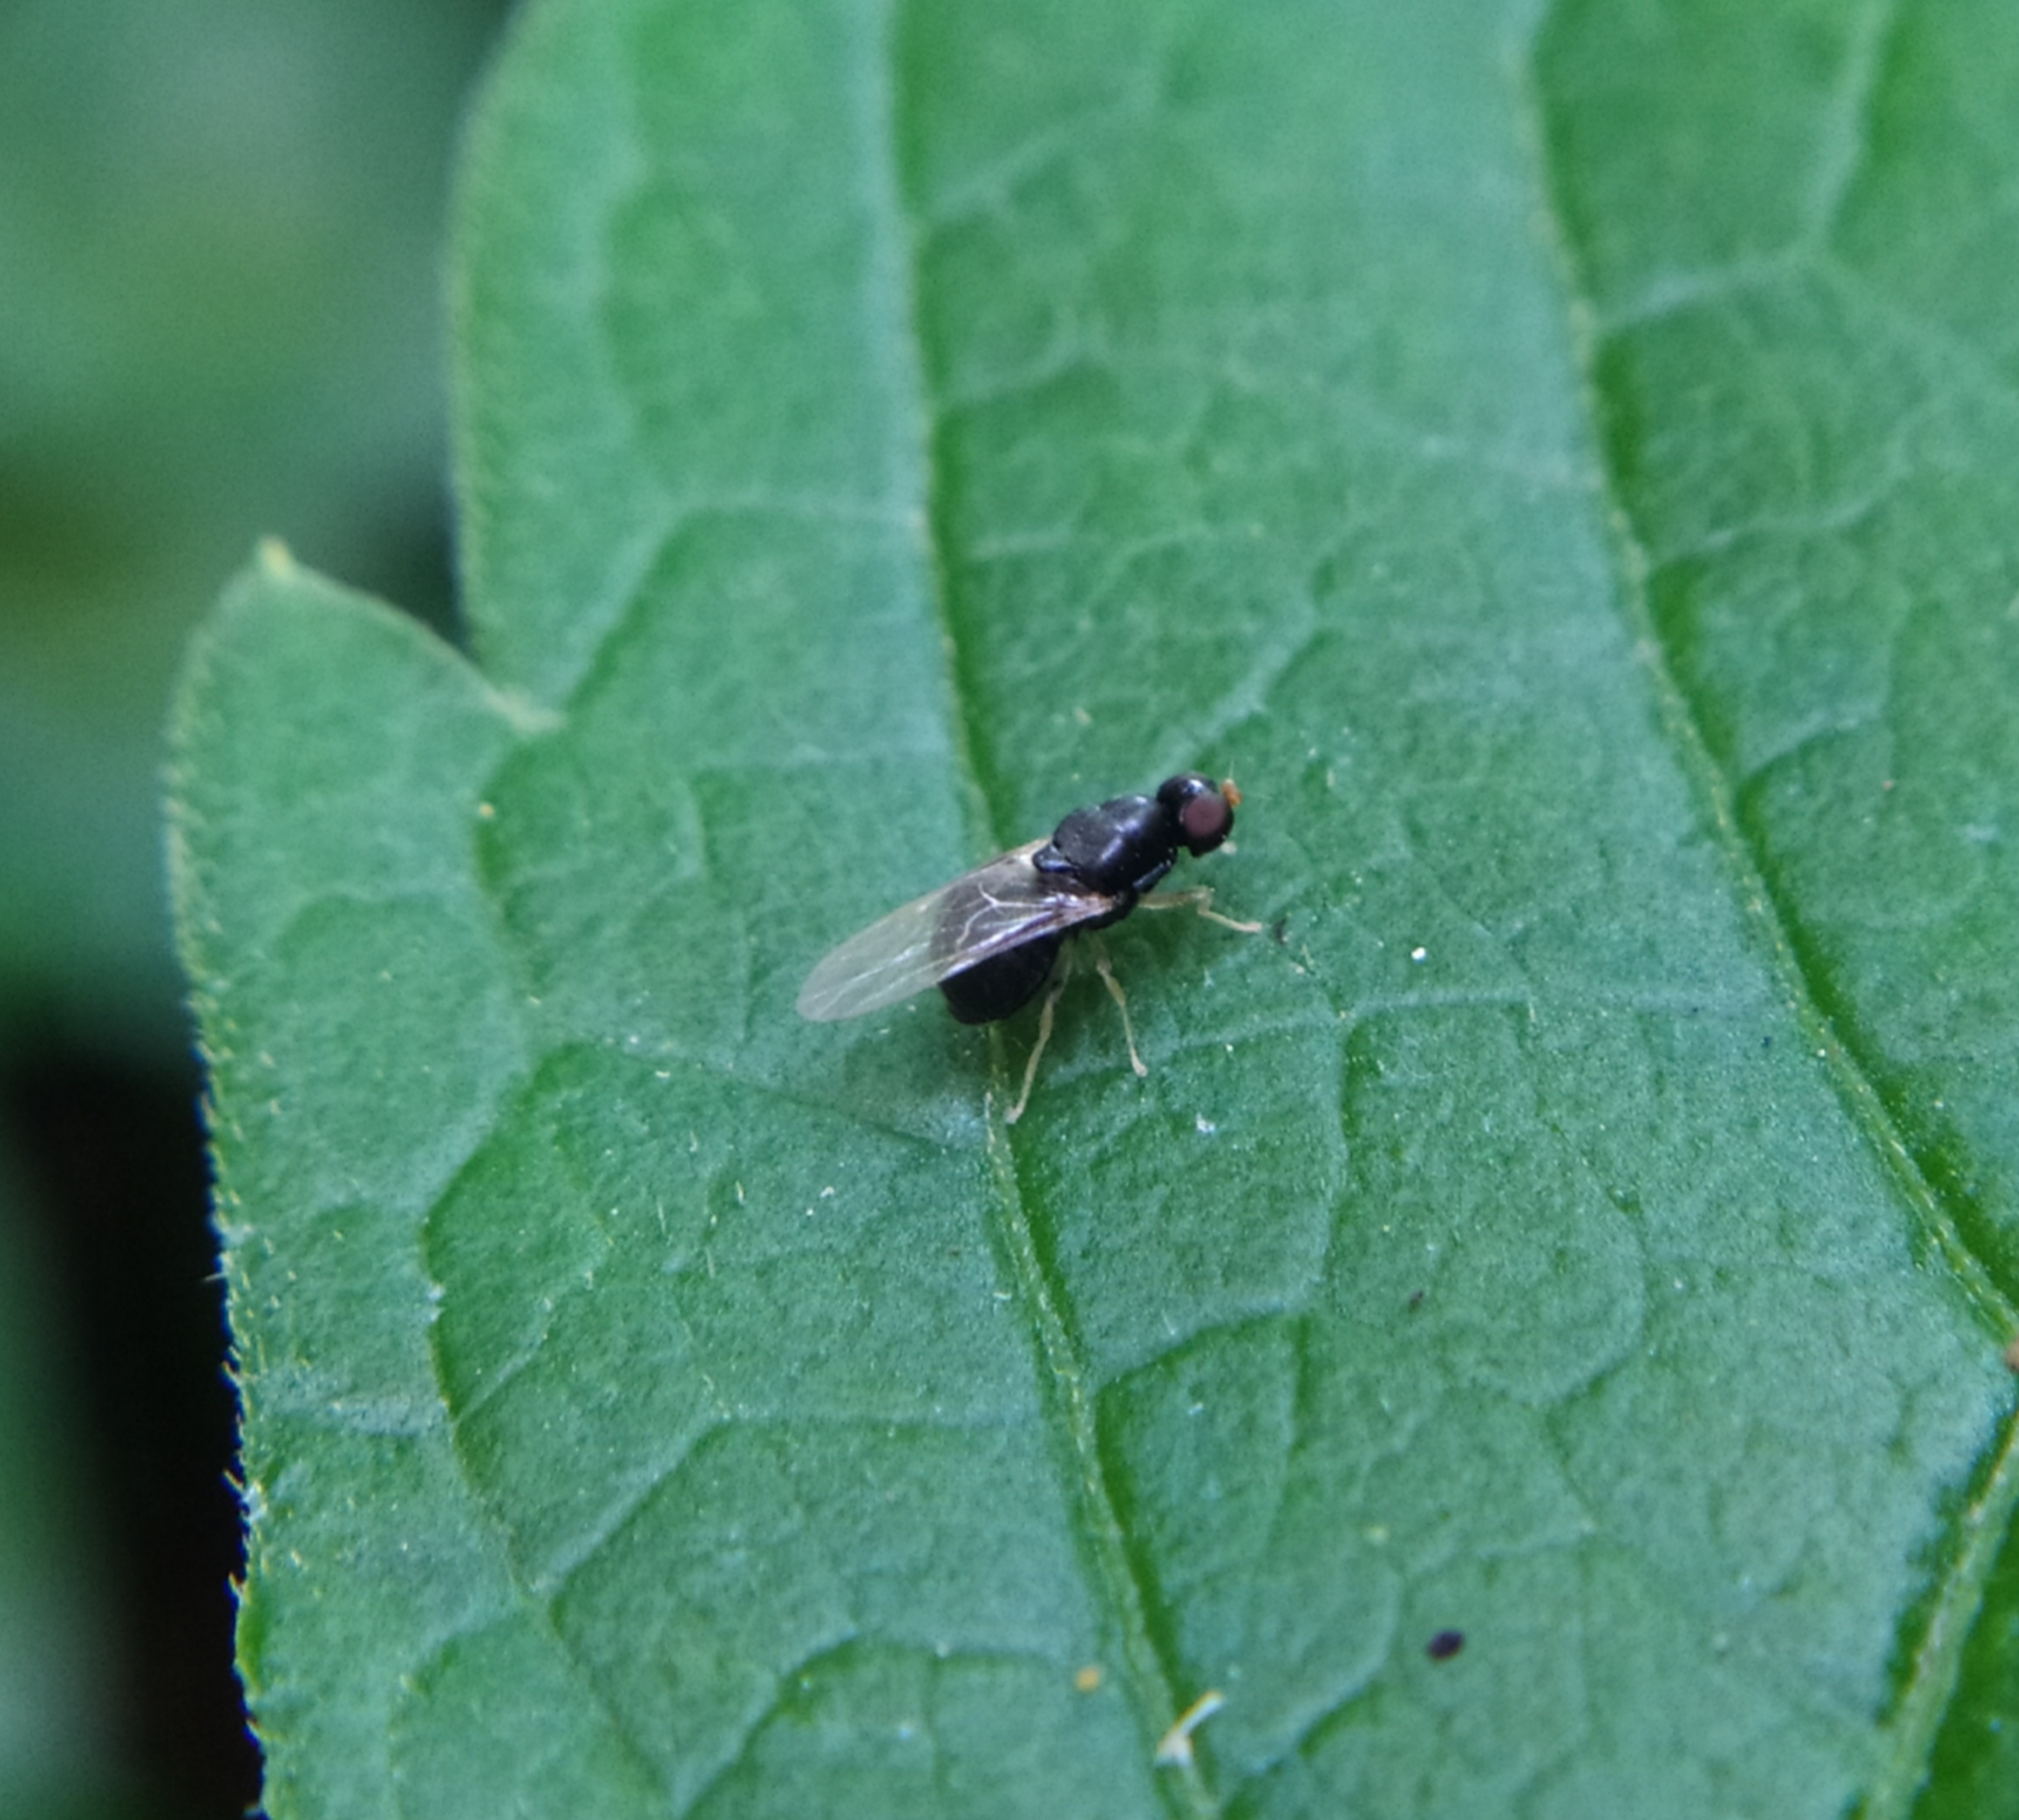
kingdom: Animalia
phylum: Arthropoda
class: Insecta
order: Diptera
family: Stratiomyidae
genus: Pachygaster
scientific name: Pachygaster leachii
